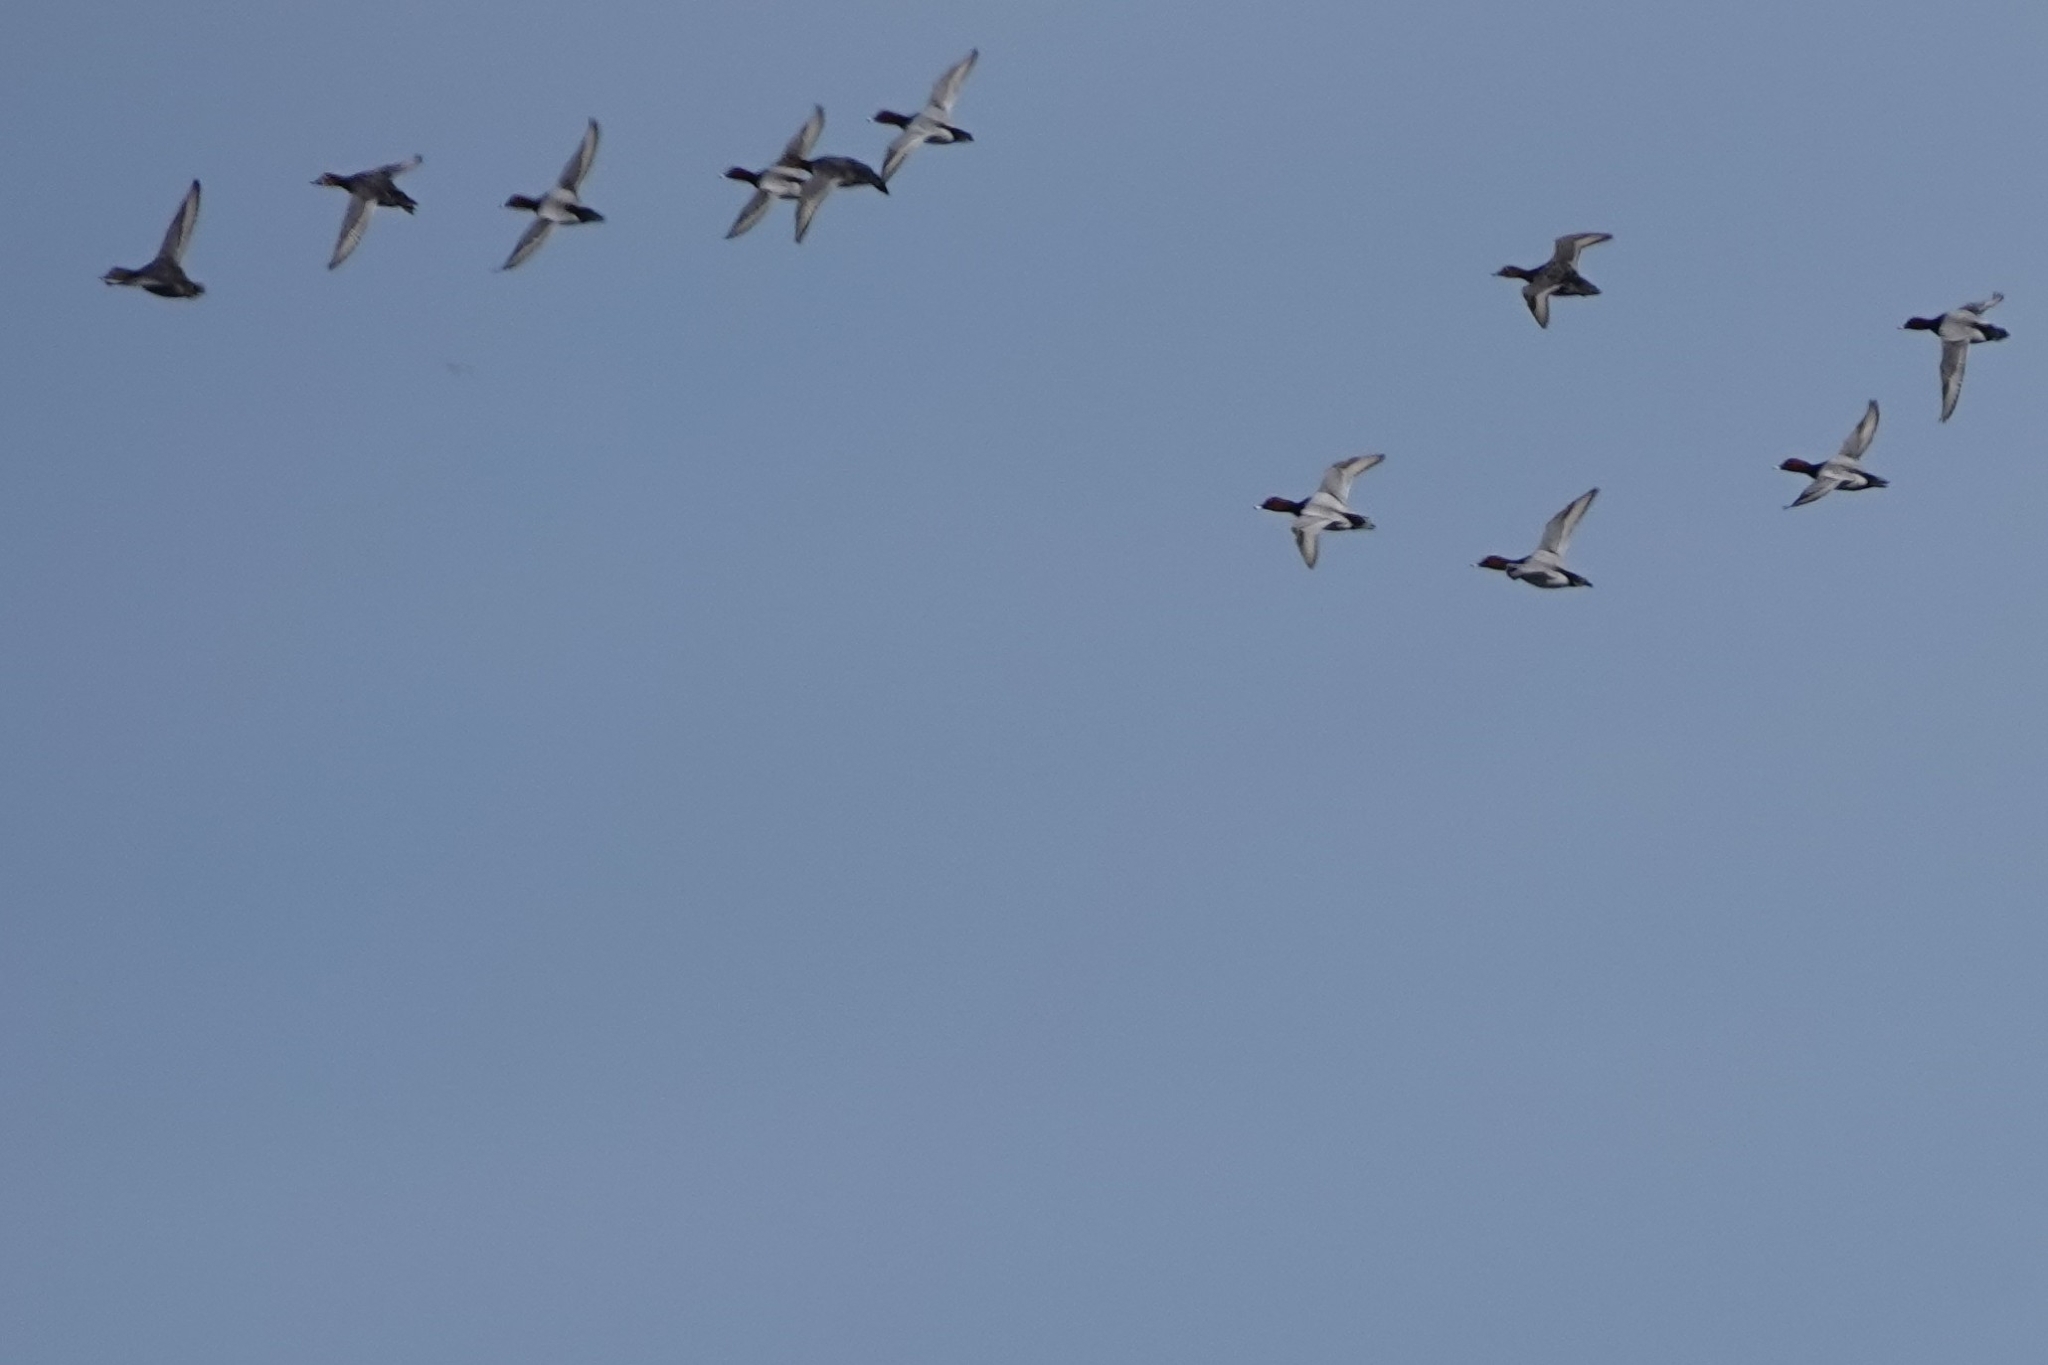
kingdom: Animalia
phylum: Chordata
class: Aves
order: Anseriformes
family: Anatidae
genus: Aythya
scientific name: Aythya ferina
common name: Common pochard
